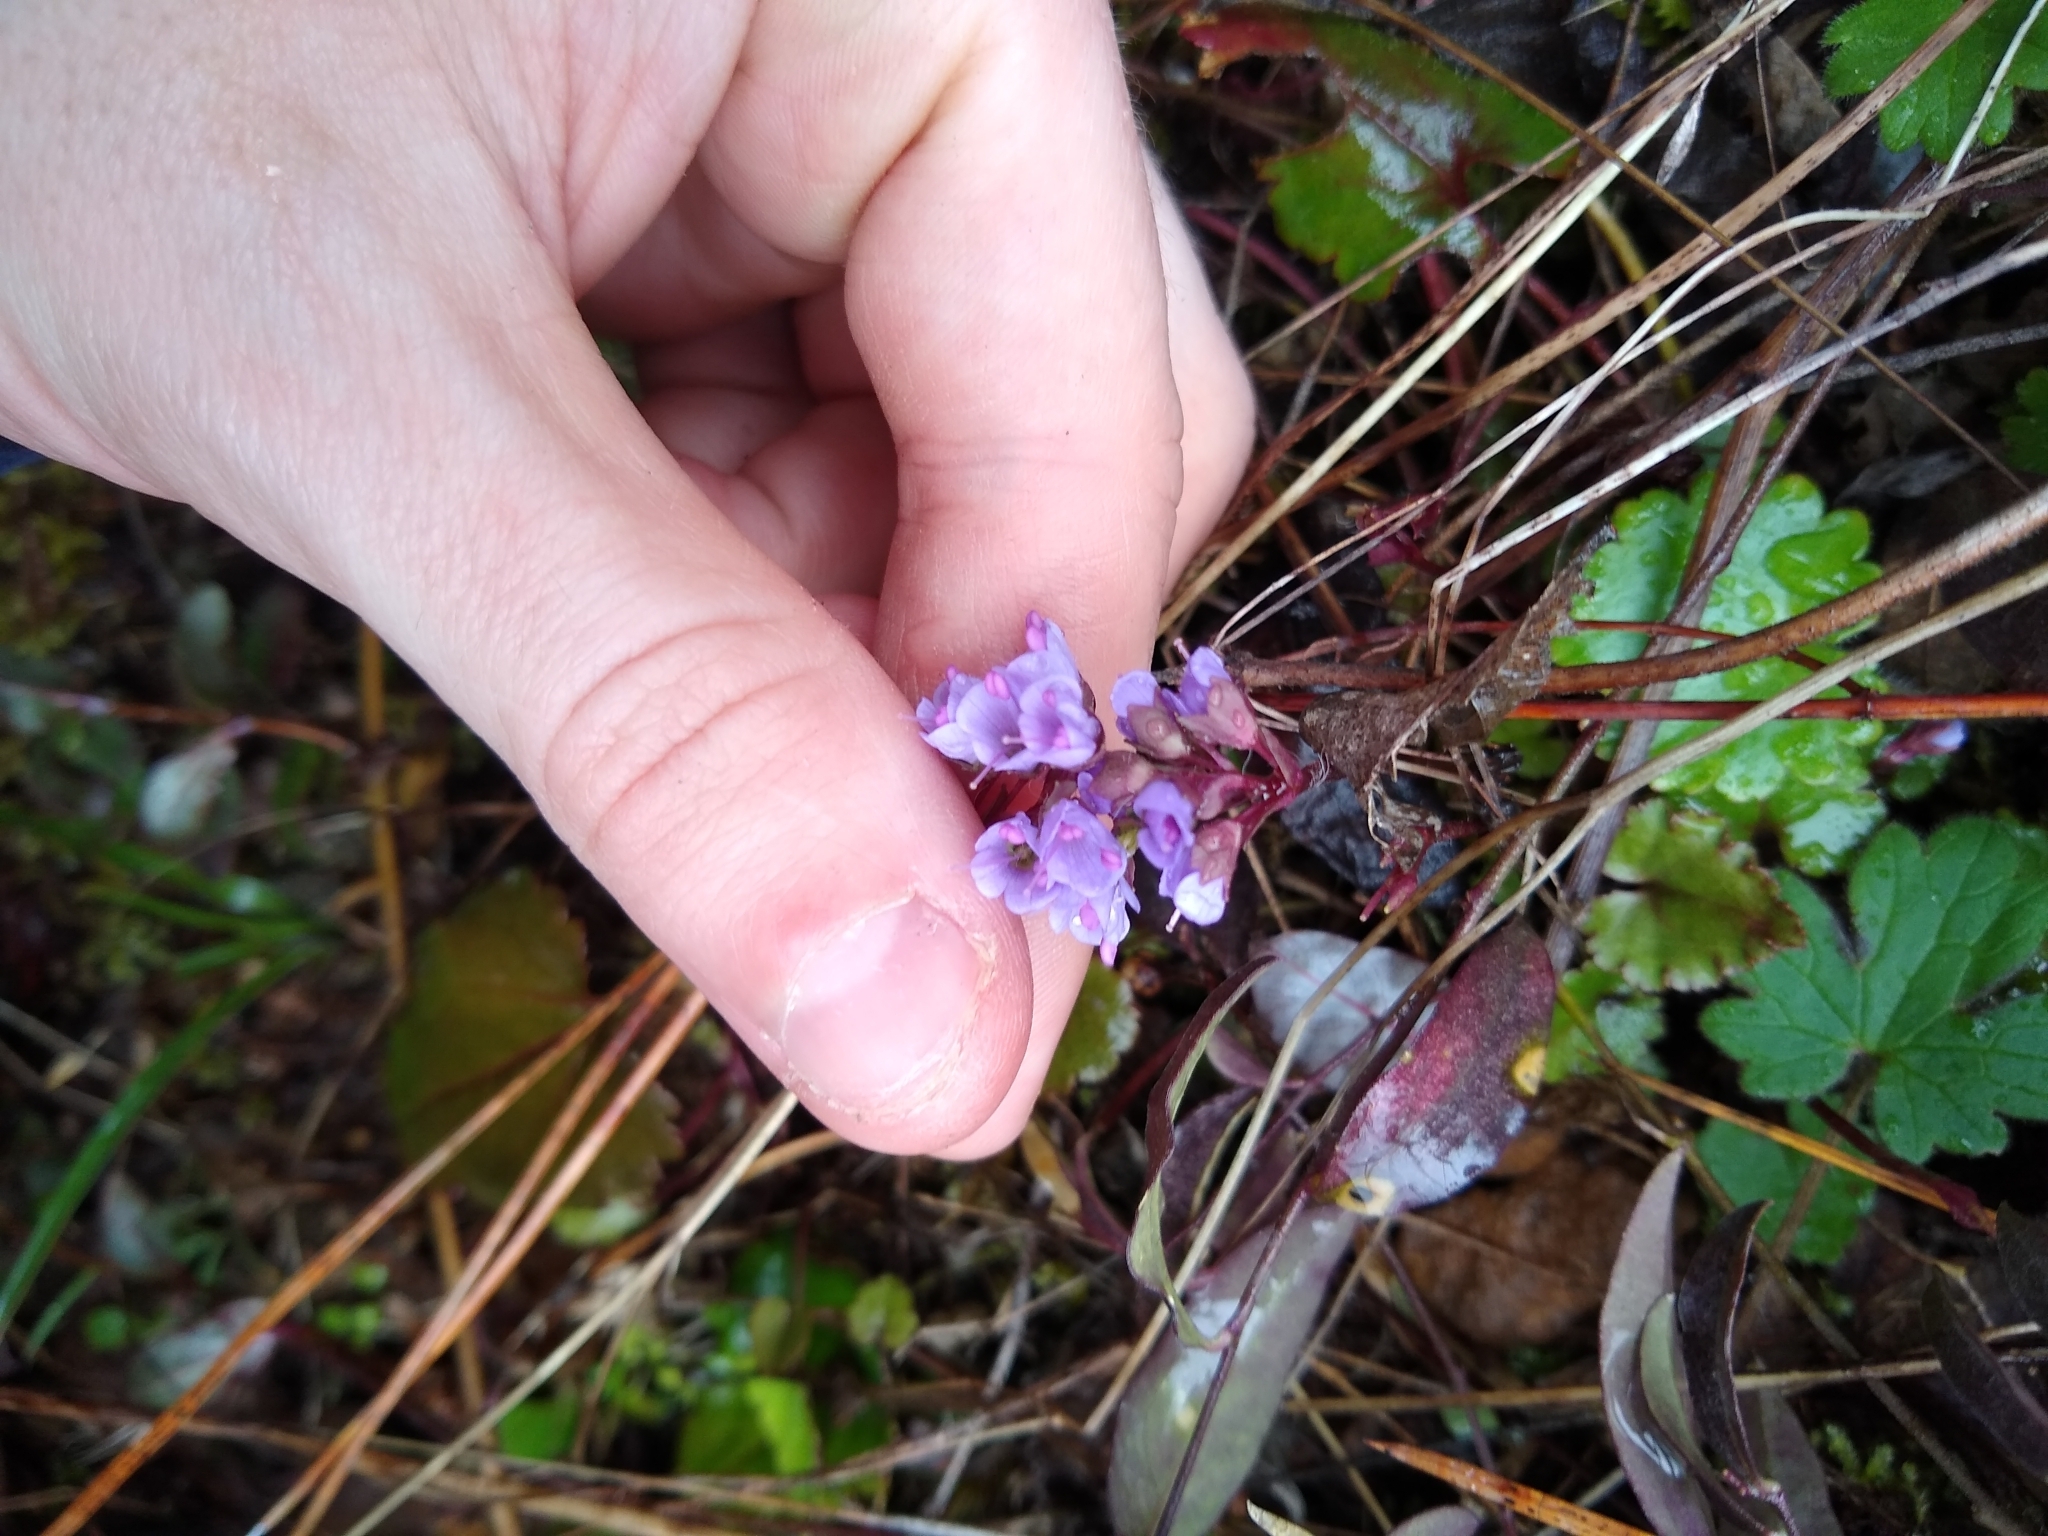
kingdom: Plantae
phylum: Tracheophyta
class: Magnoliopsida
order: Lamiales
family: Plantaginaceae
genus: Synthyris
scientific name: Synthyris cordata
